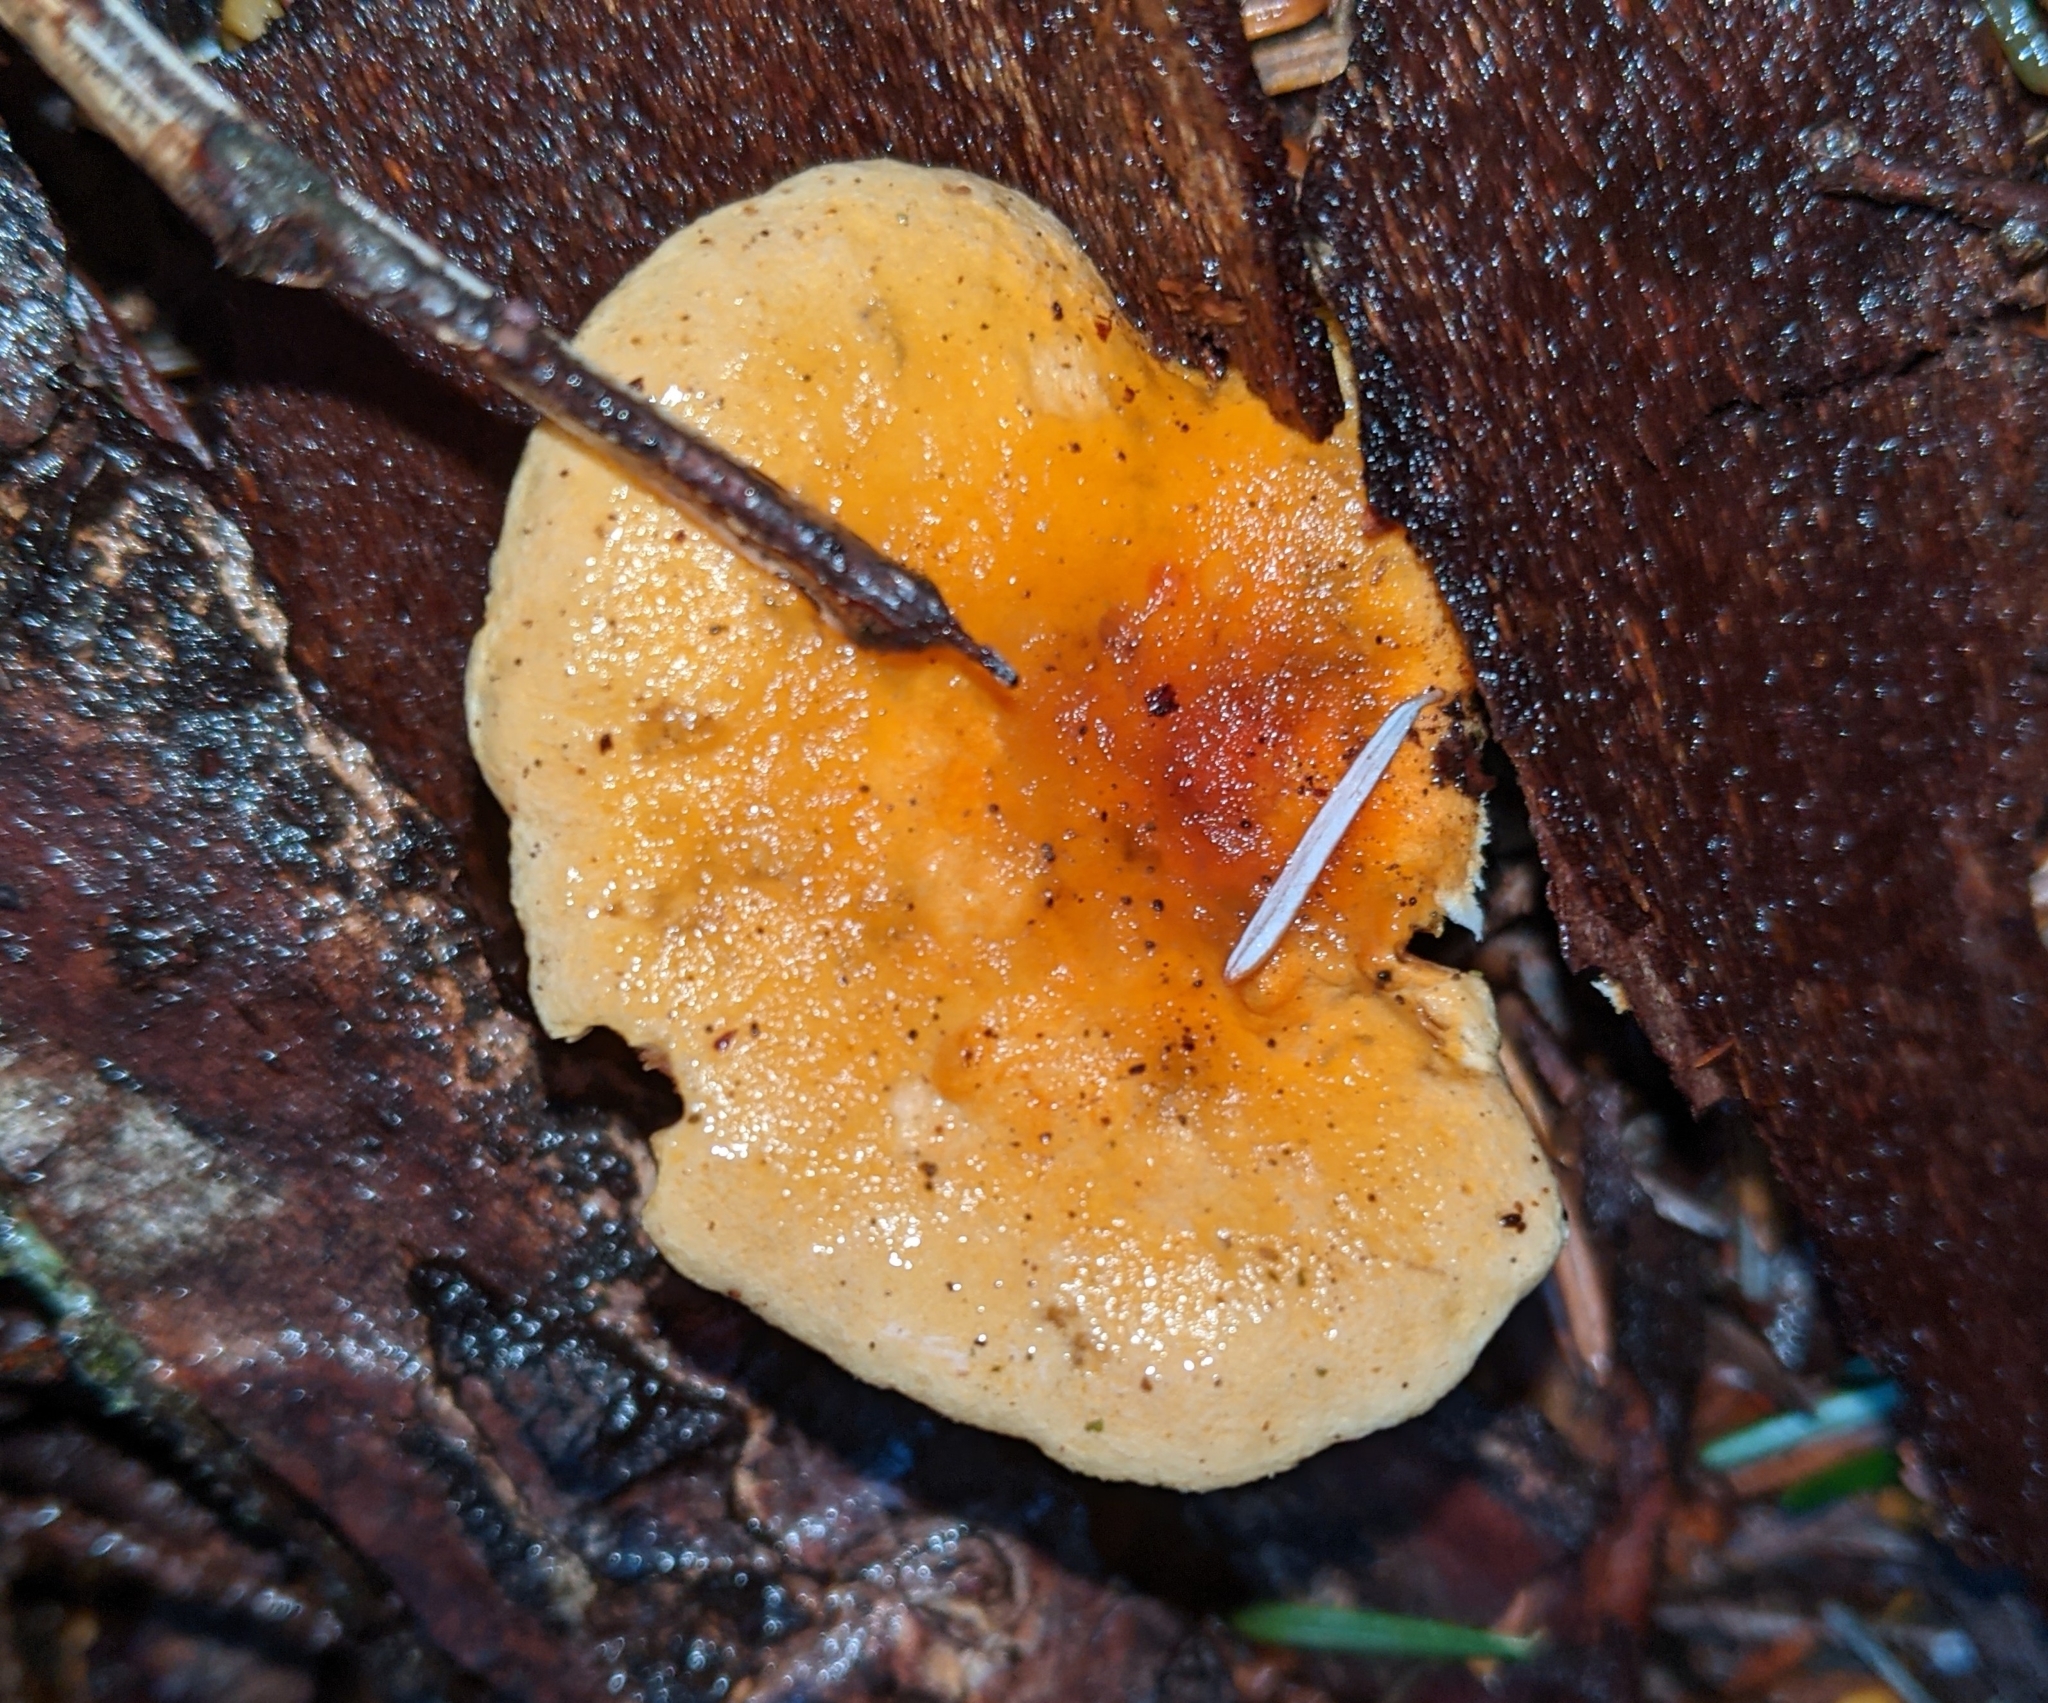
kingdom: Fungi
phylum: Basidiomycota
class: Agaricomycetes
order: Boletales
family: Hygrophoropsidaceae
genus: Hygrophoropsis
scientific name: Hygrophoropsis aurantiaca
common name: False chanterelle
